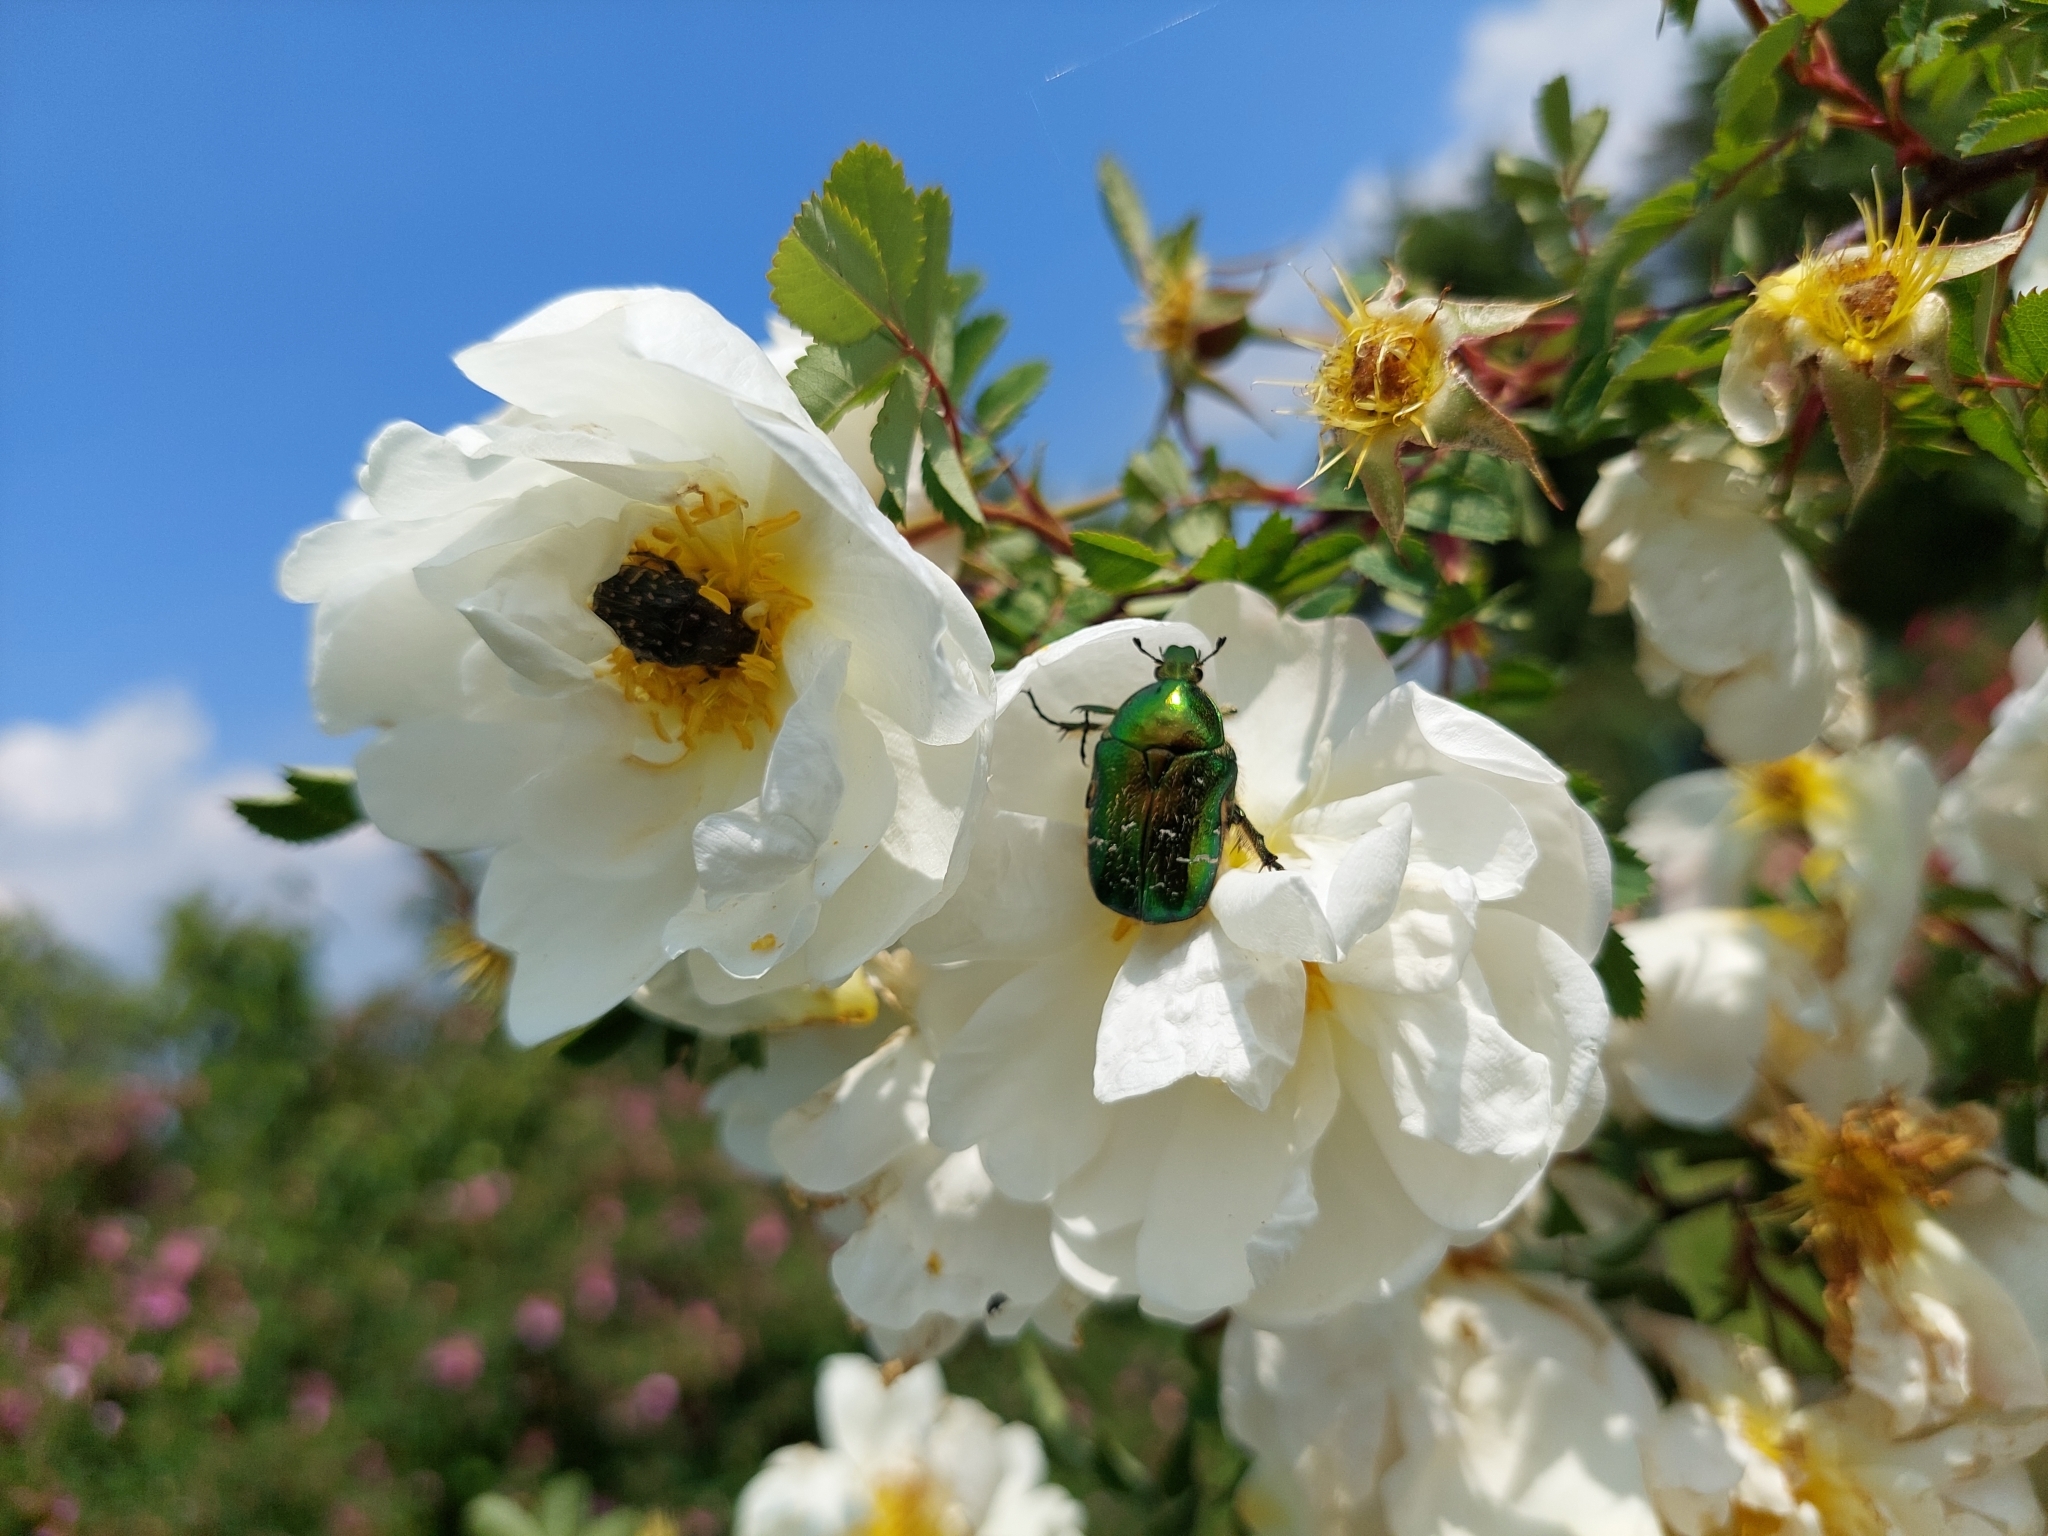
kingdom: Animalia
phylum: Arthropoda
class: Insecta
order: Coleoptera
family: Scarabaeidae
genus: Cetonia
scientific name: Cetonia aurata
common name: Rose chafer
